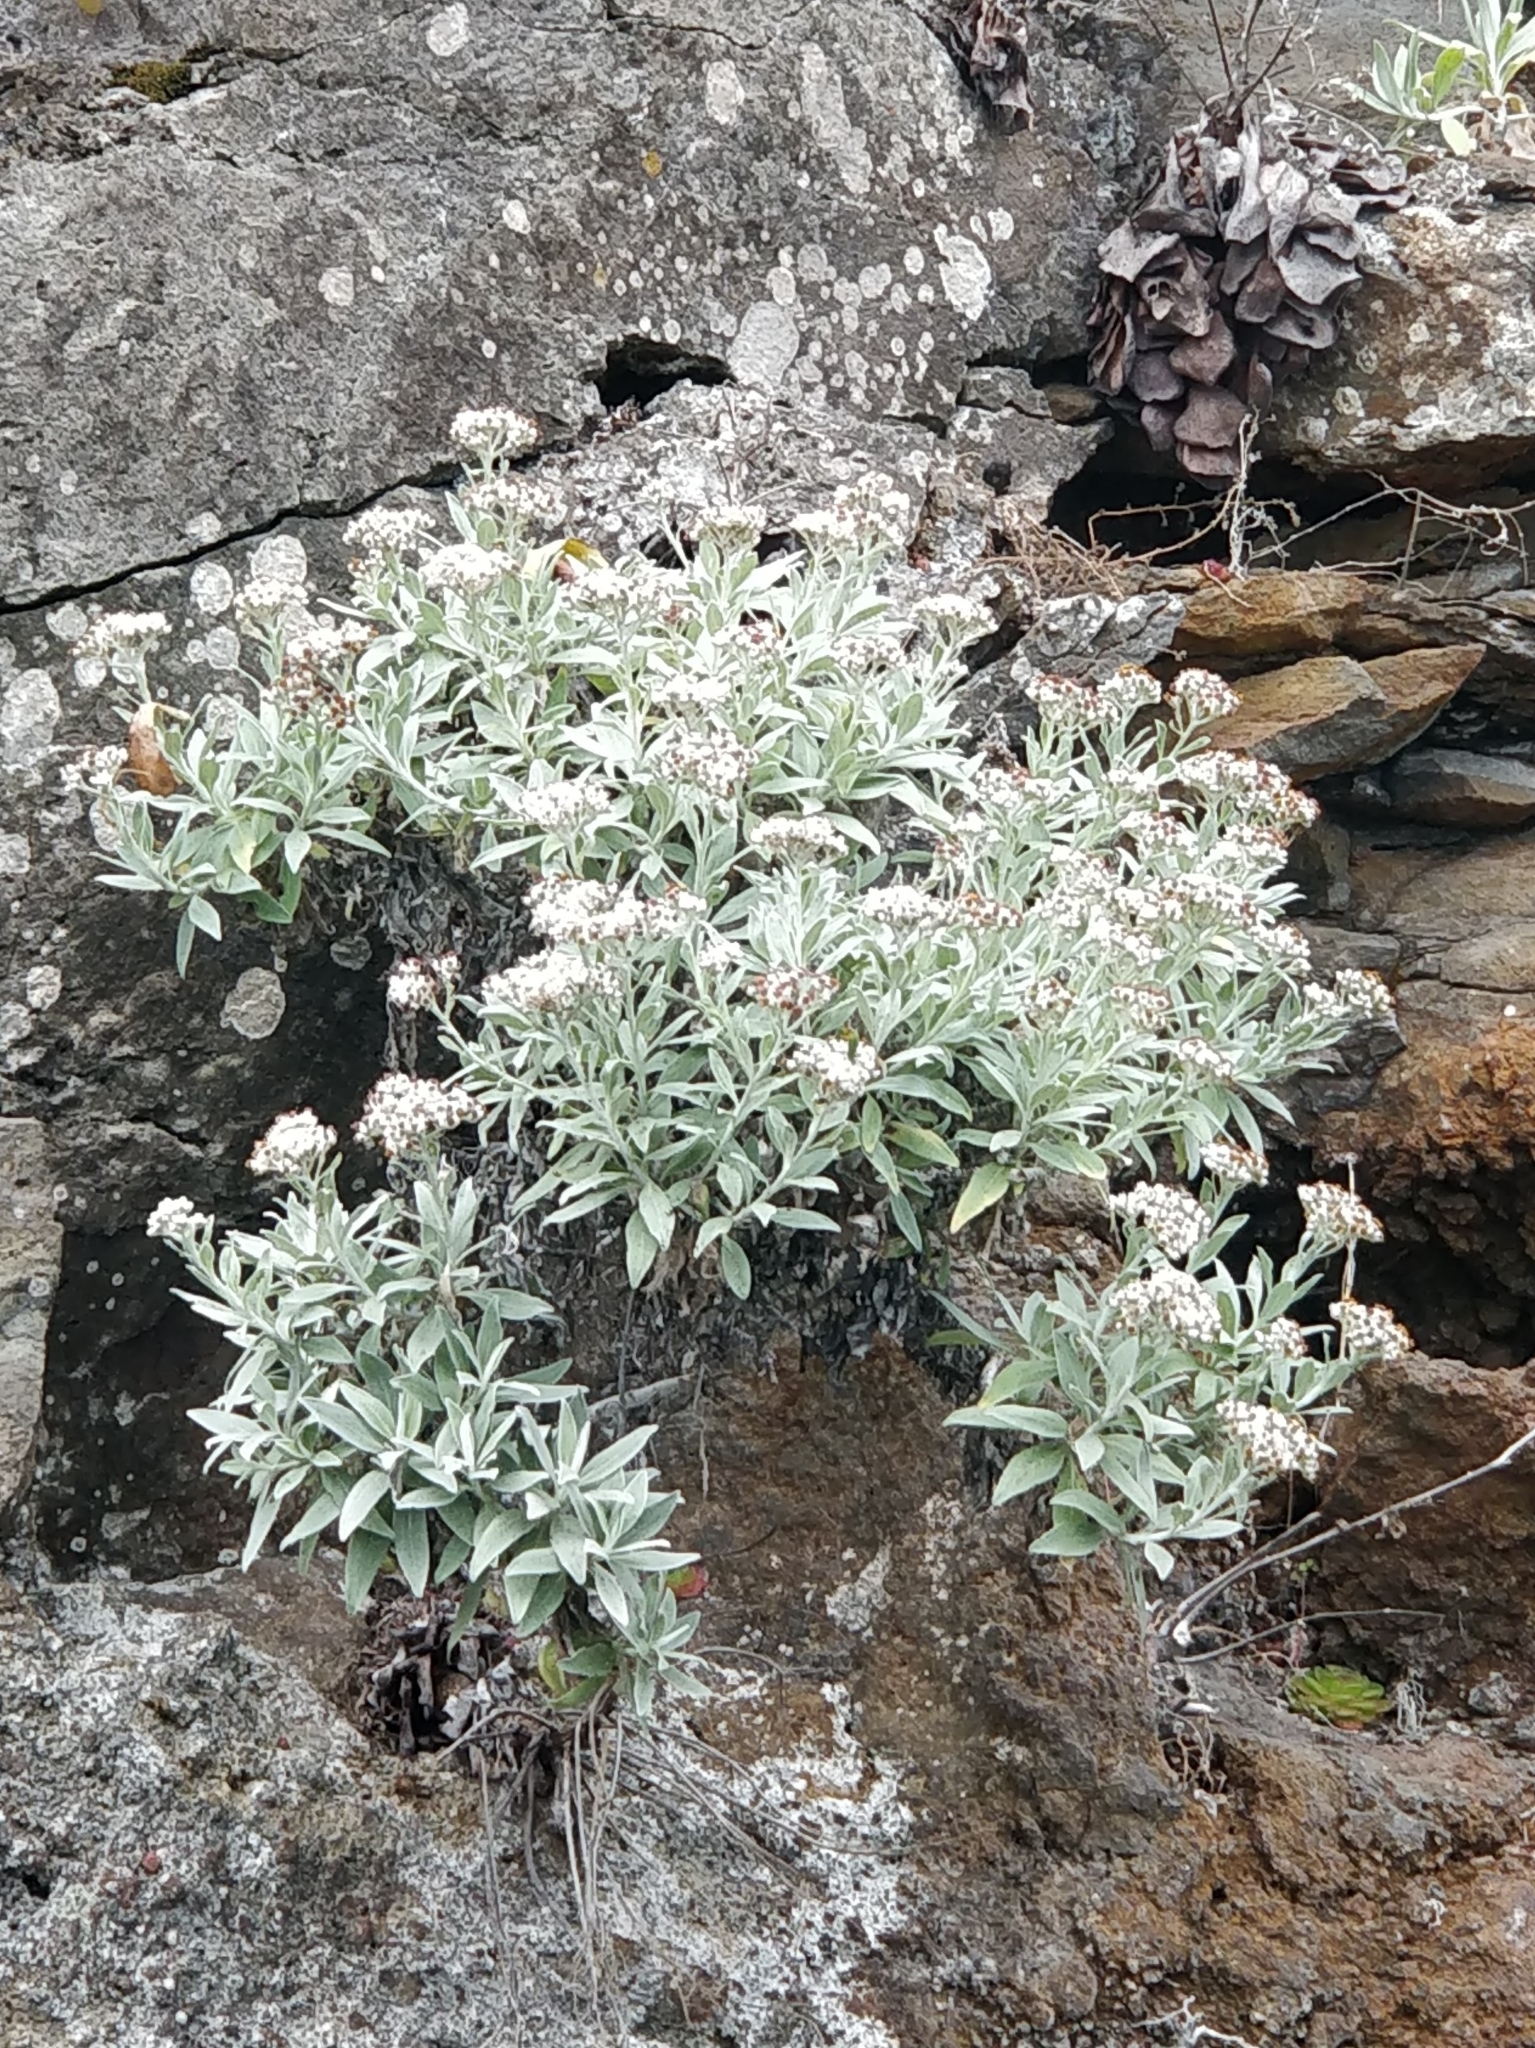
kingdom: Plantae
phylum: Tracheophyta
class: Magnoliopsida
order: Asterales
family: Asteraceae
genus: Helichrysum
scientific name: Helichrysum melaleucum
